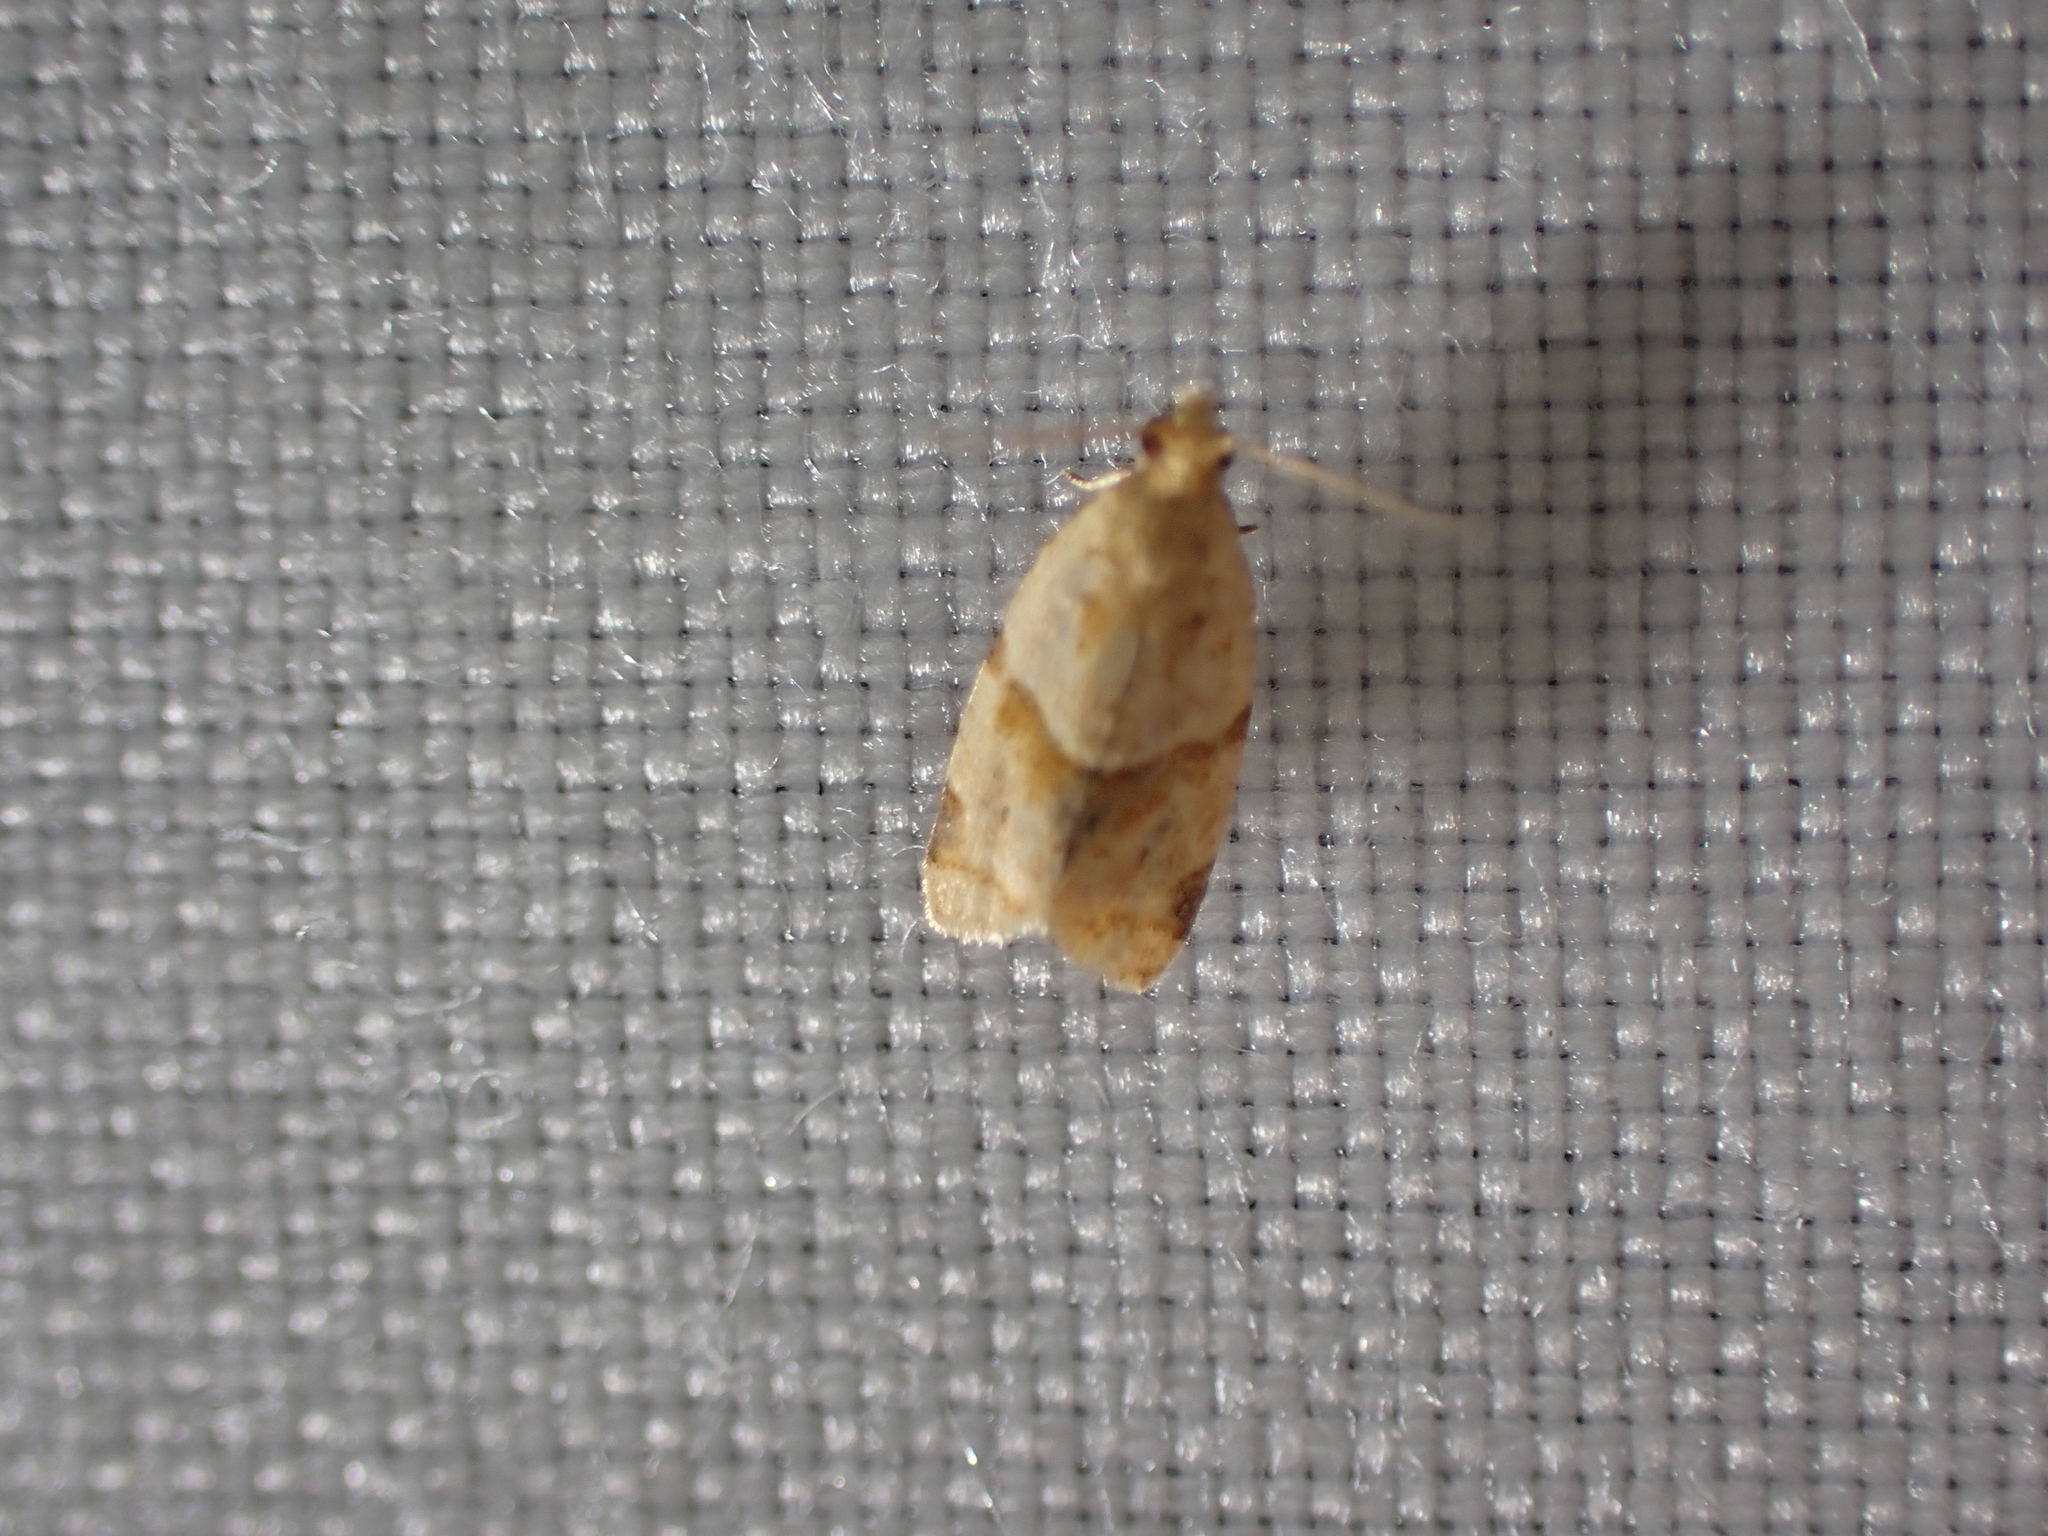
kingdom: Animalia
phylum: Arthropoda
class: Insecta
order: Lepidoptera
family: Tortricidae
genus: Clepsis
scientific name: Clepsis peritana
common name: Garden tortrix
